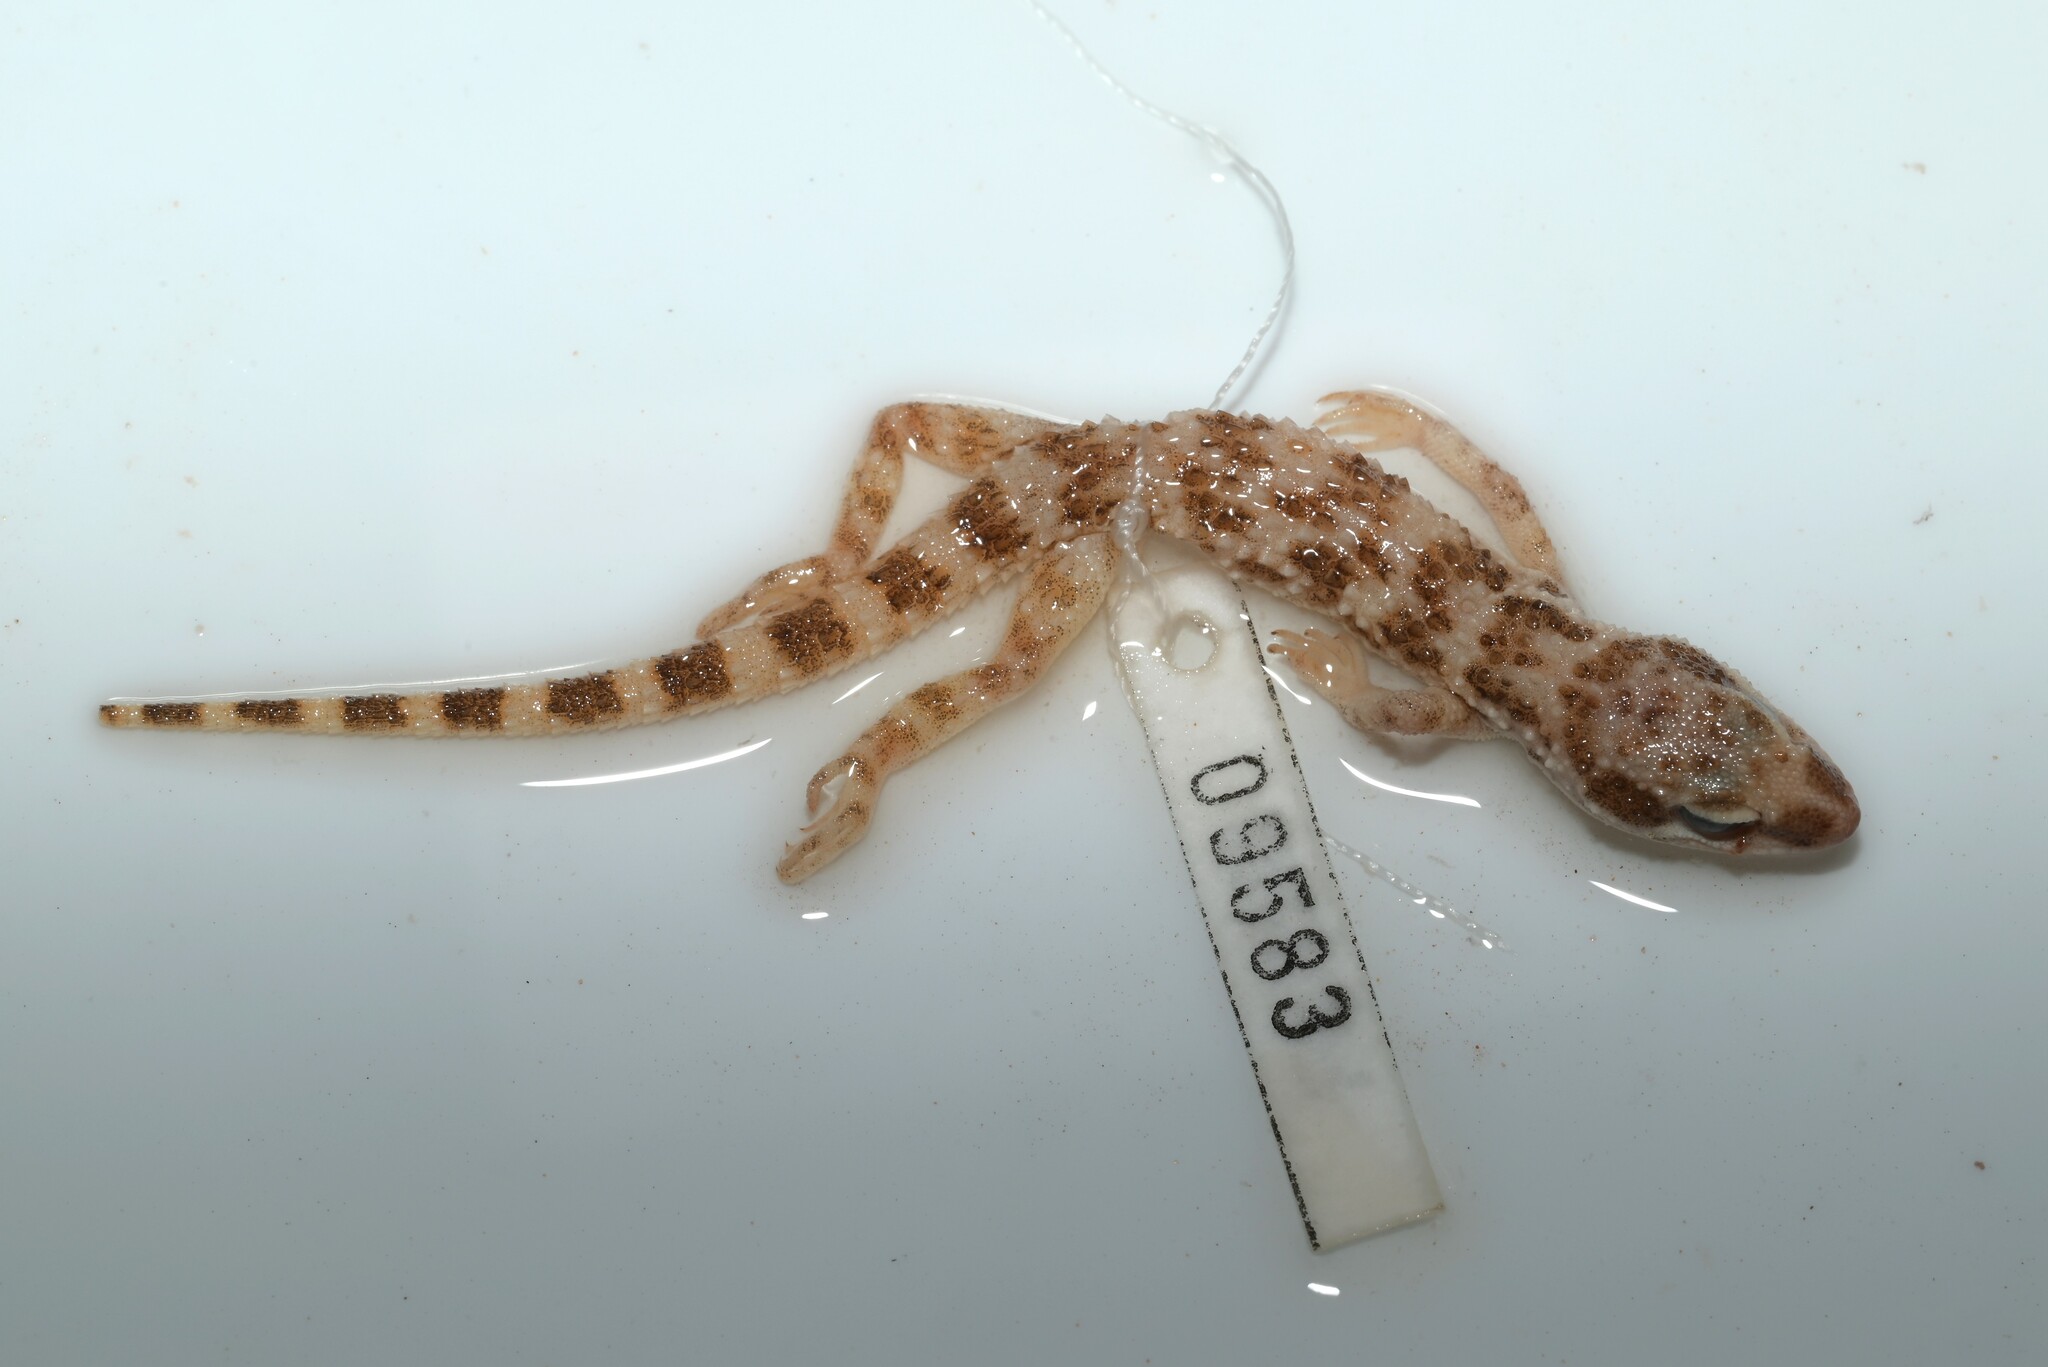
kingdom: Animalia
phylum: Chordata
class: Squamata
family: Gekkonidae
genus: Bunopus
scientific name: Bunopus tuberculatus
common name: Southern tuberculated gecko
